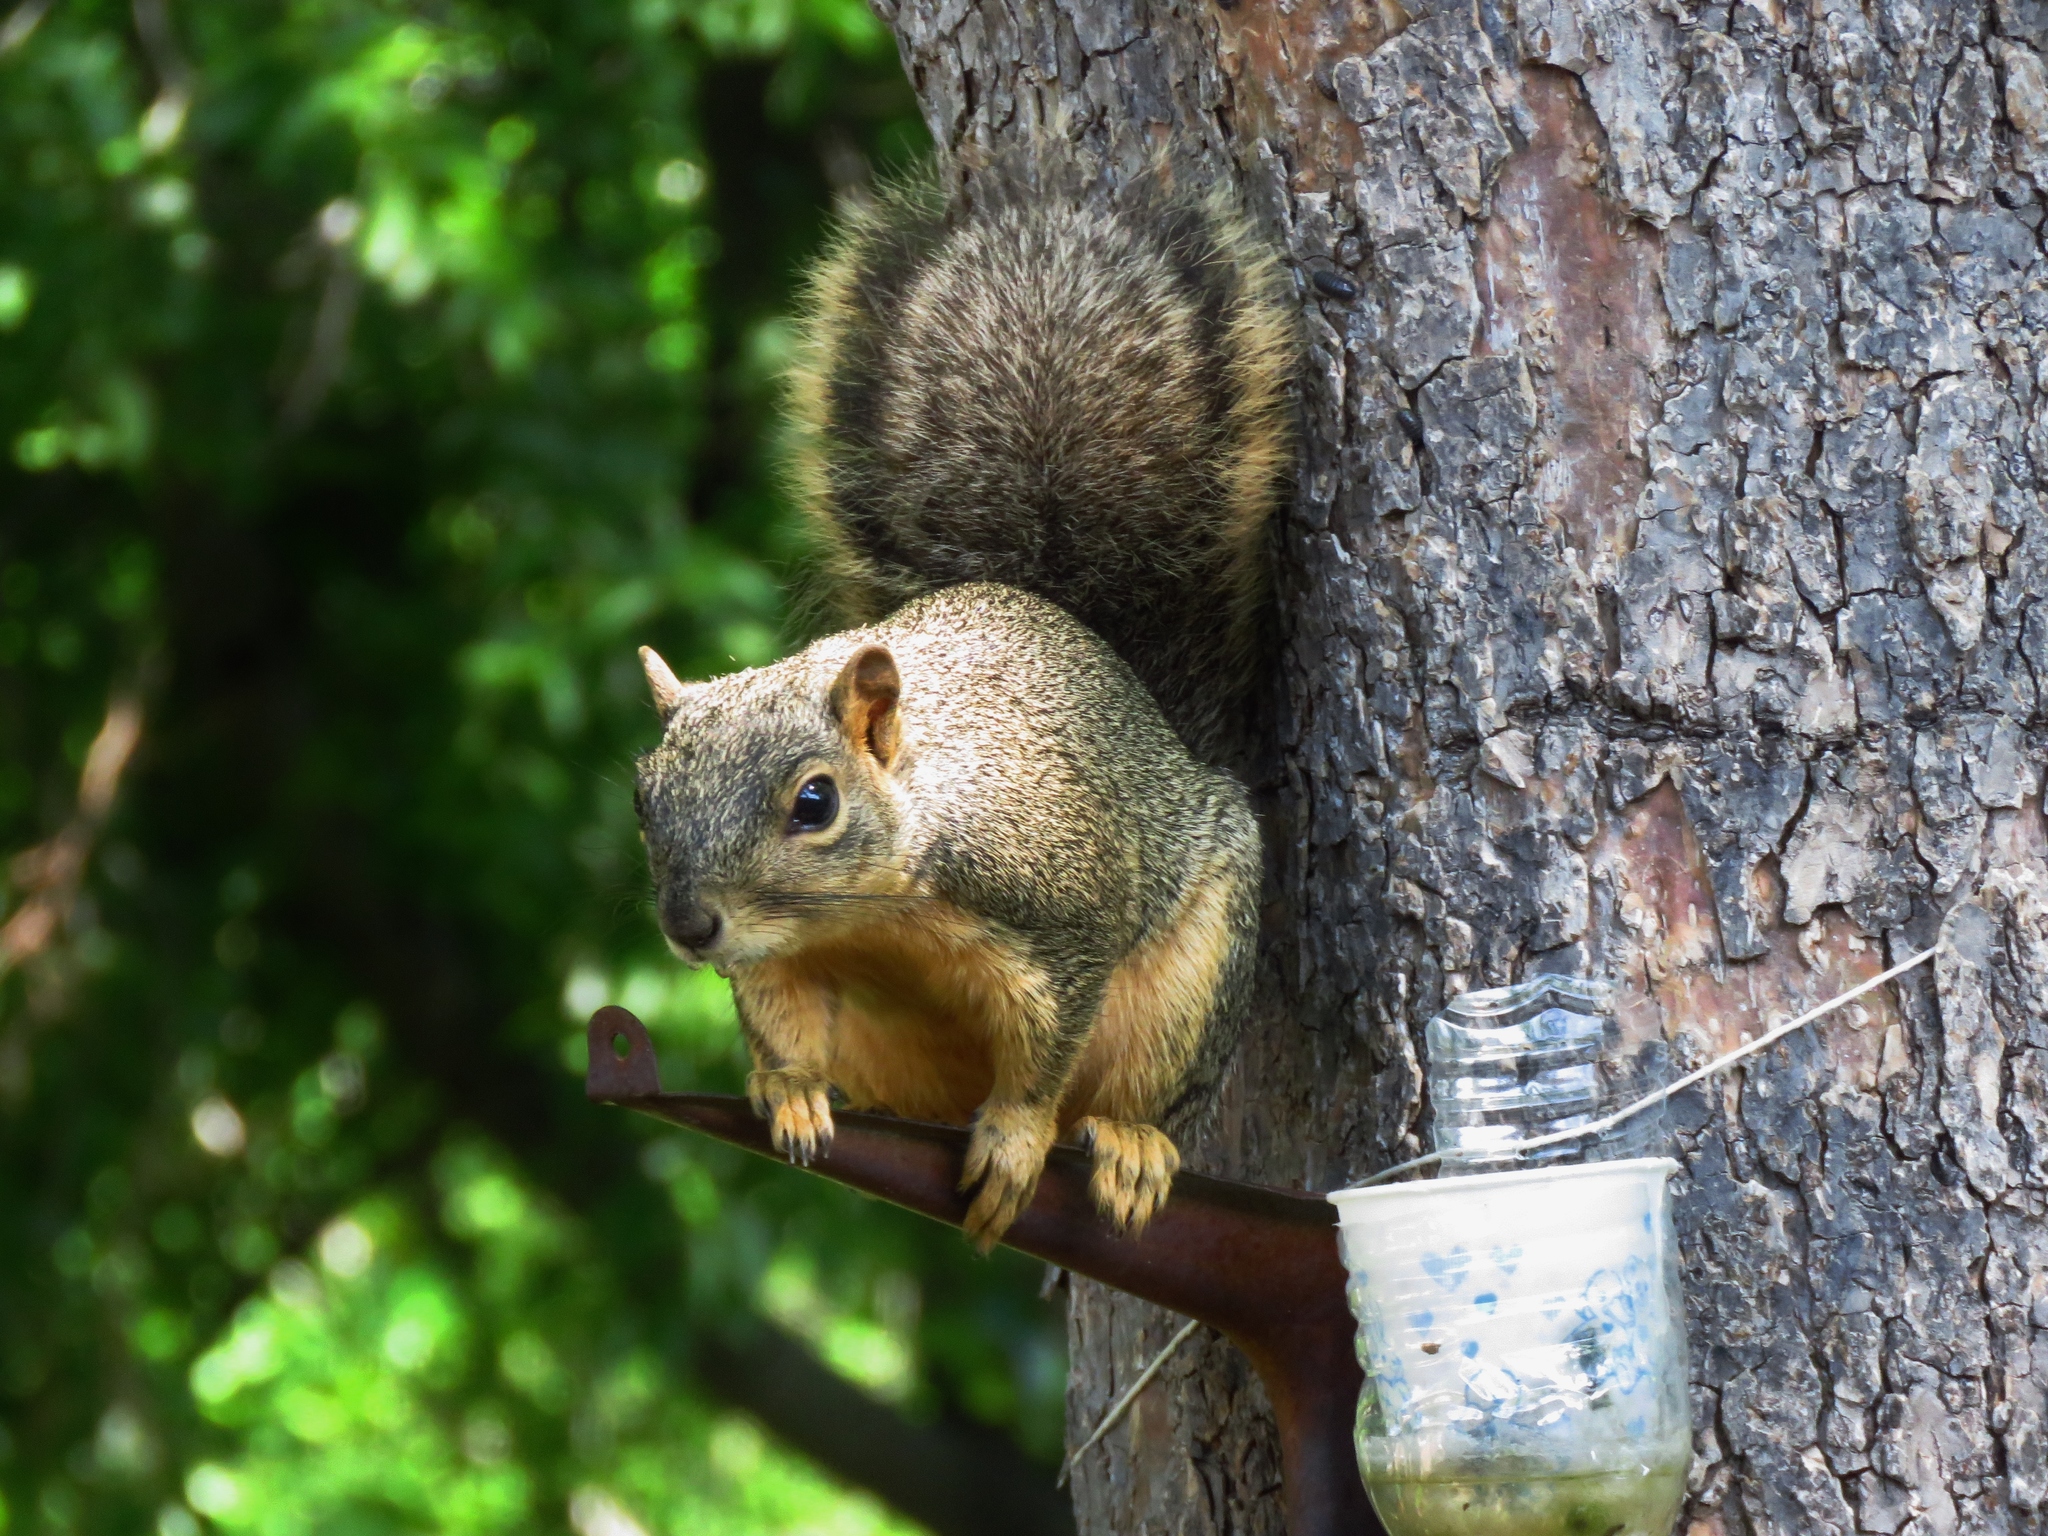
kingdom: Animalia
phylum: Chordata
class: Mammalia
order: Rodentia
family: Sciuridae
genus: Sciurus
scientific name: Sciurus niger
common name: Fox squirrel
